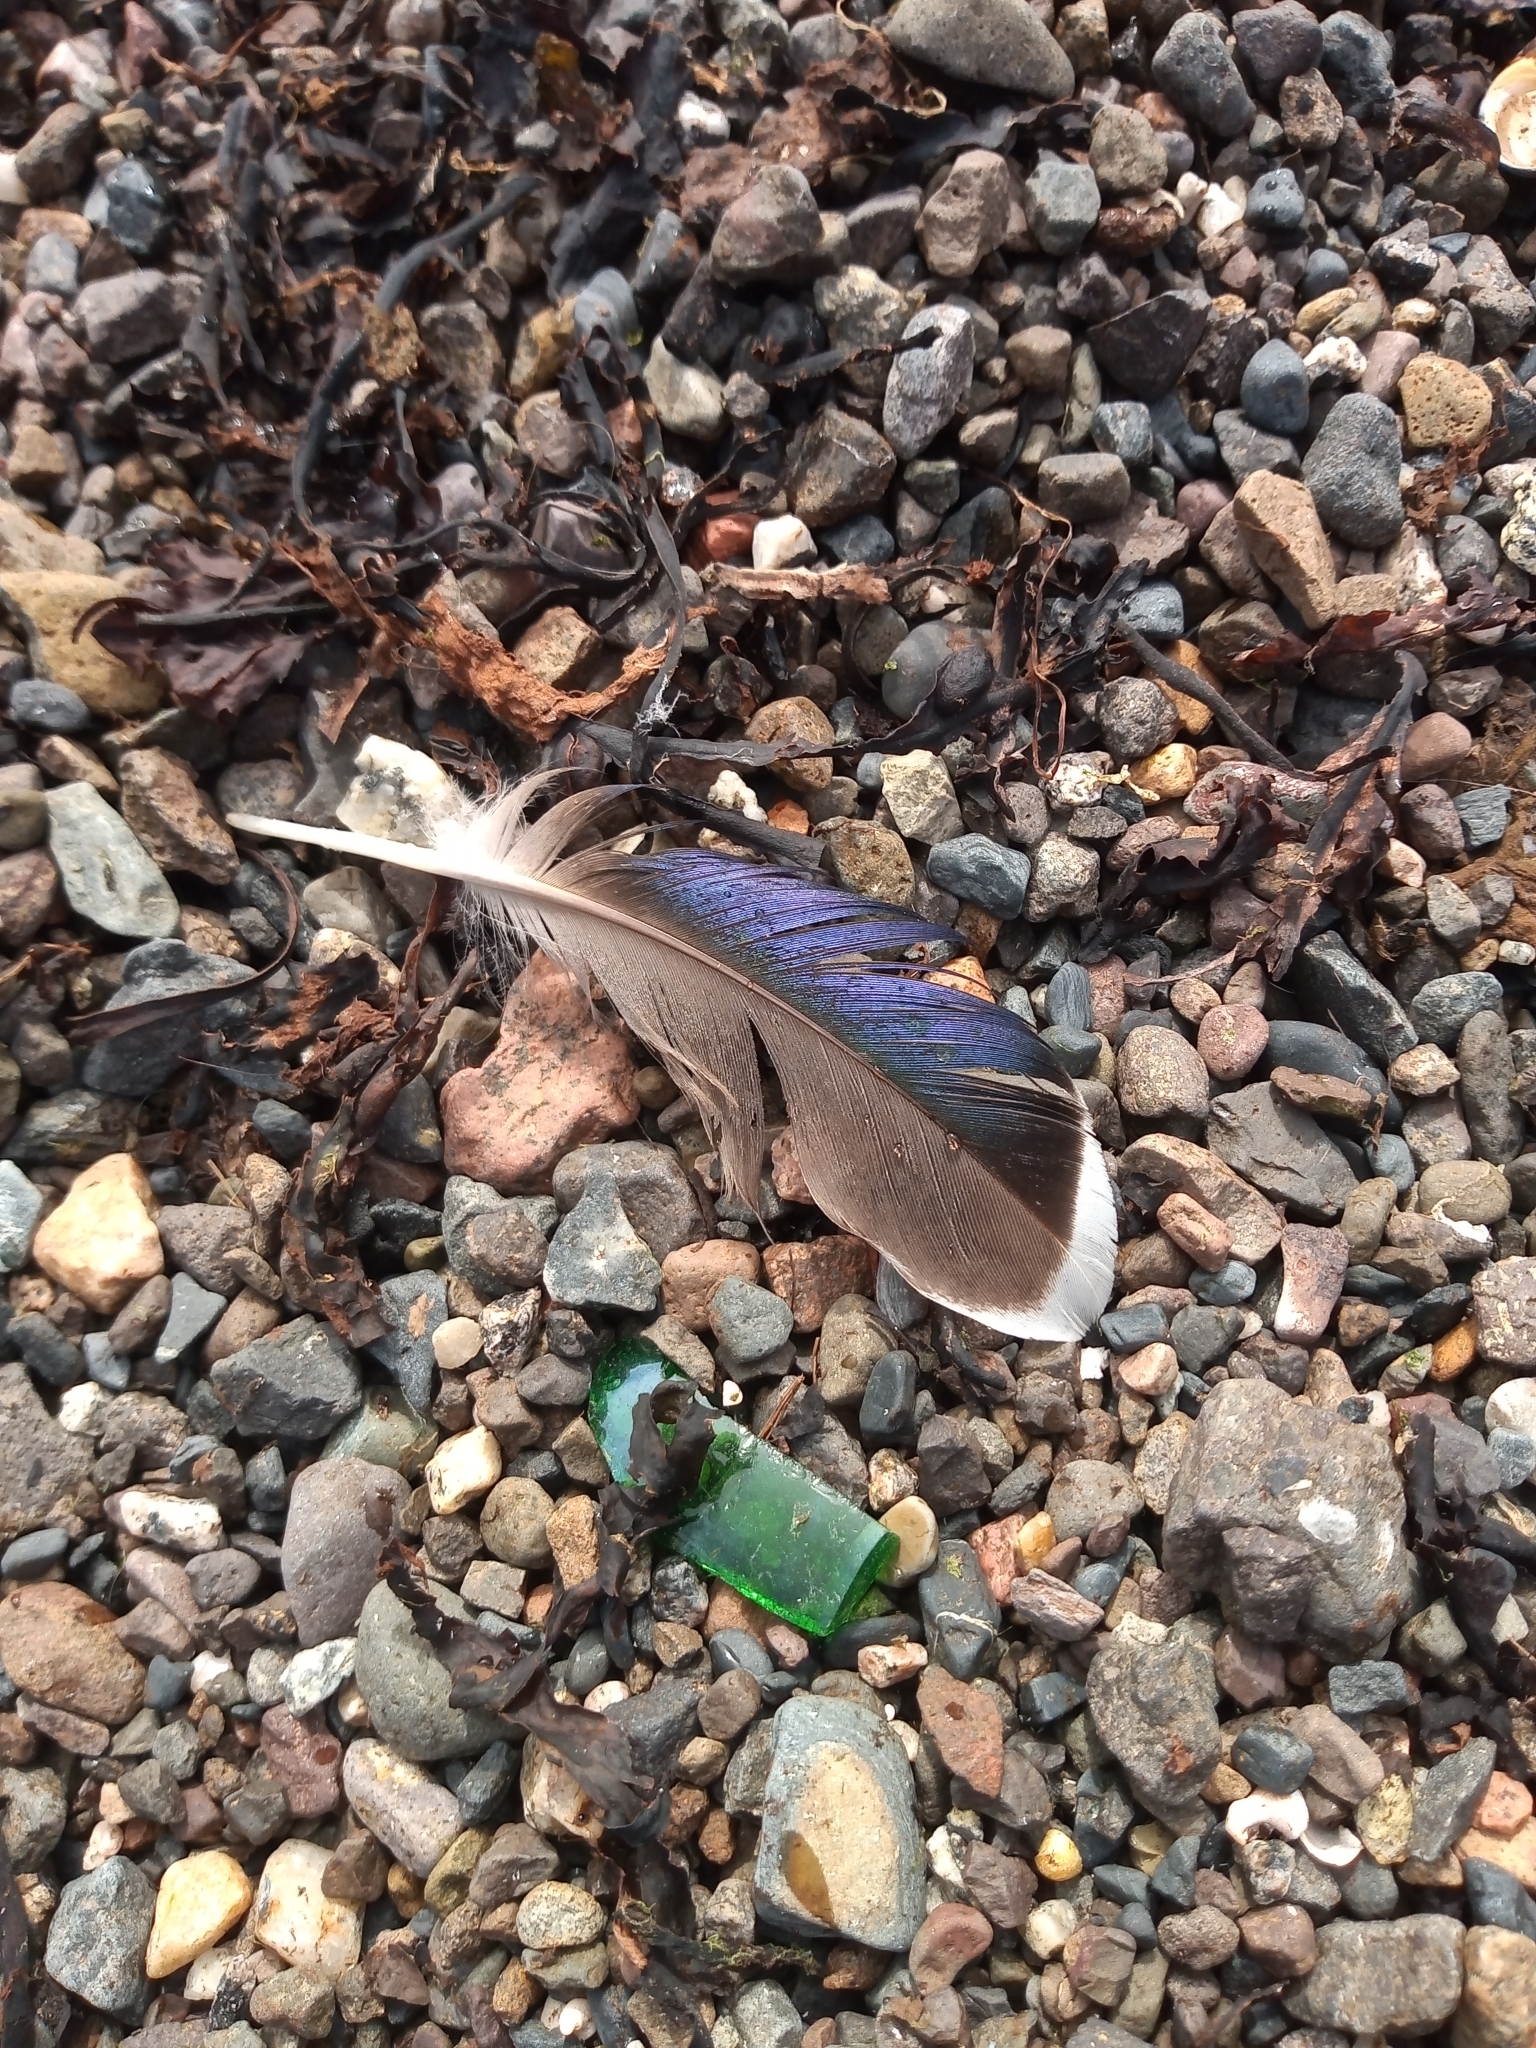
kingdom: Animalia
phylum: Chordata
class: Aves
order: Anseriformes
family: Anatidae
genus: Anas
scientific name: Anas platyrhynchos
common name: Mallard
